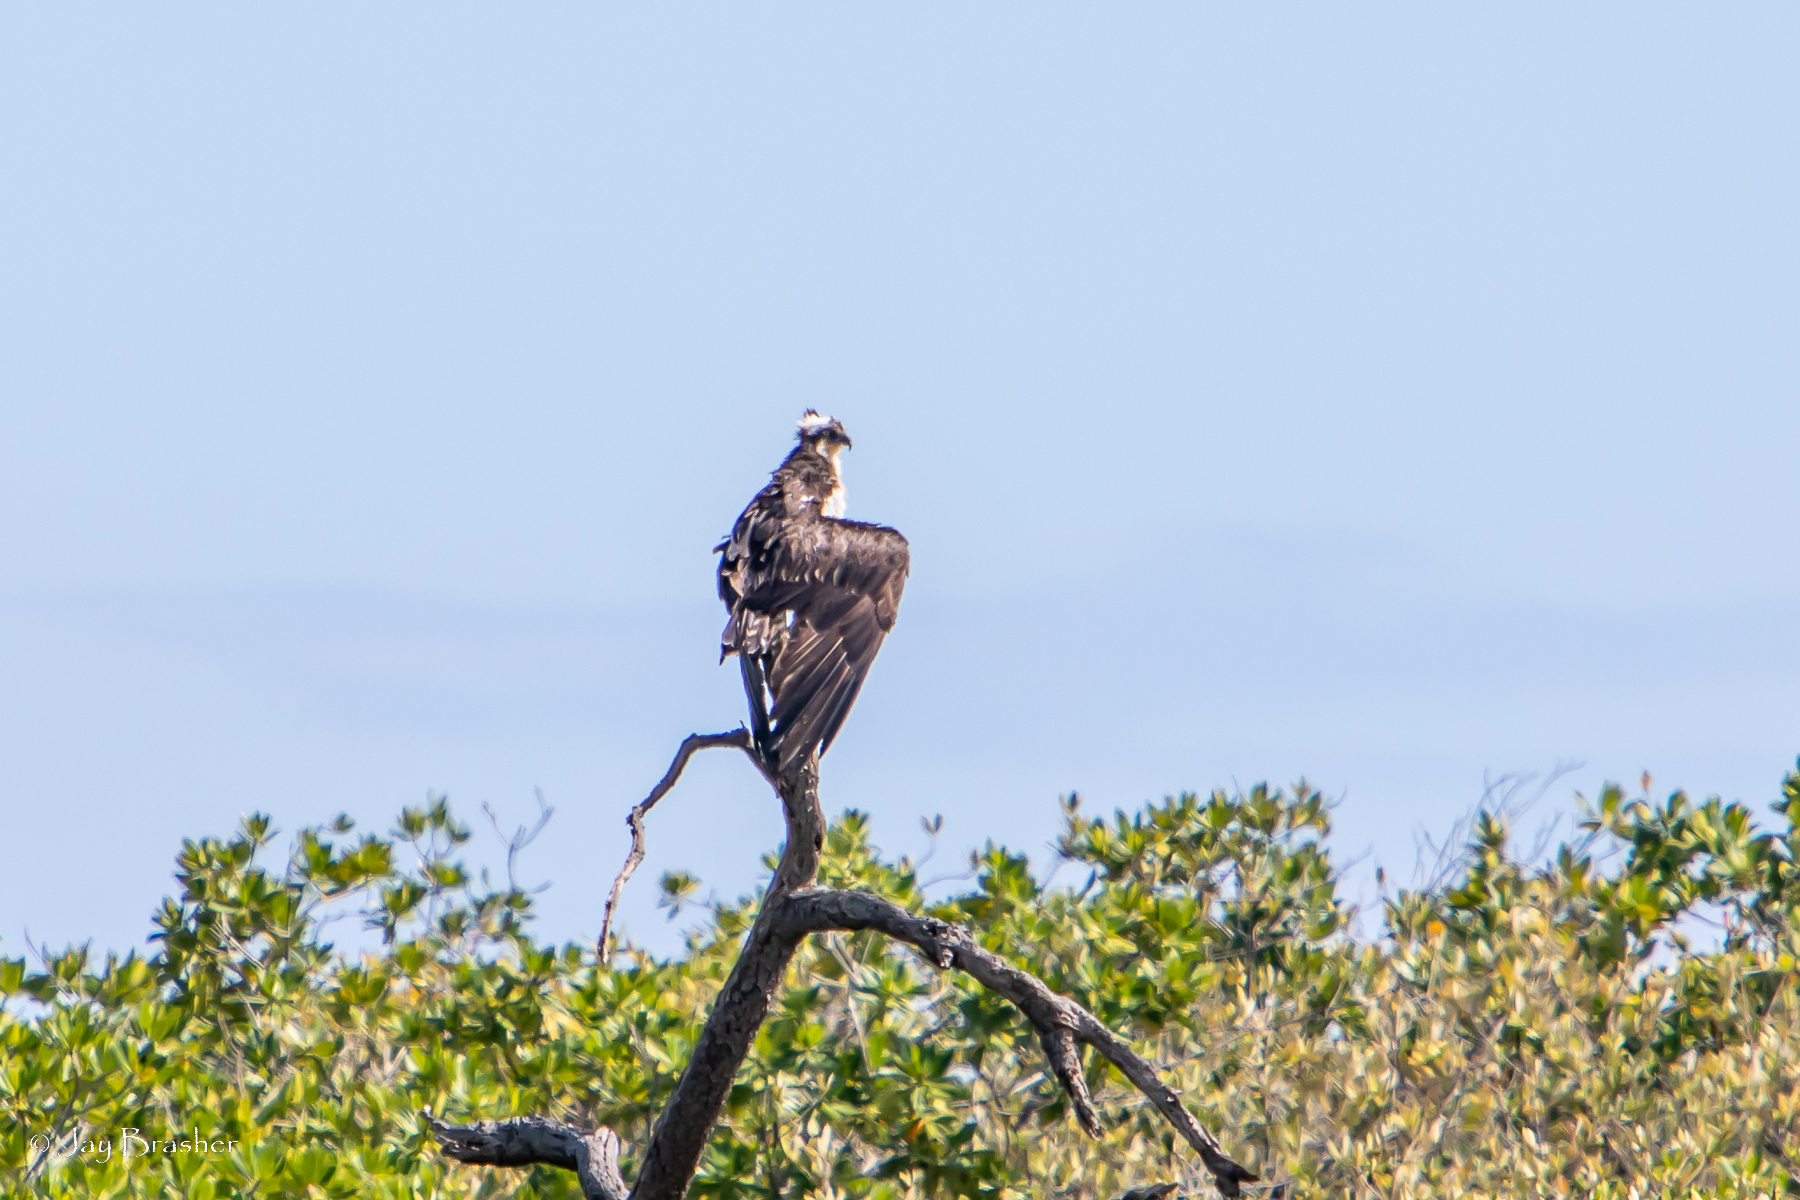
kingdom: Animalia
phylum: Chordata
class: Aves
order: Accipitriformes
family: Pandionidae
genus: Pandion
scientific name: Pandion haliaetus
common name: Osprey
